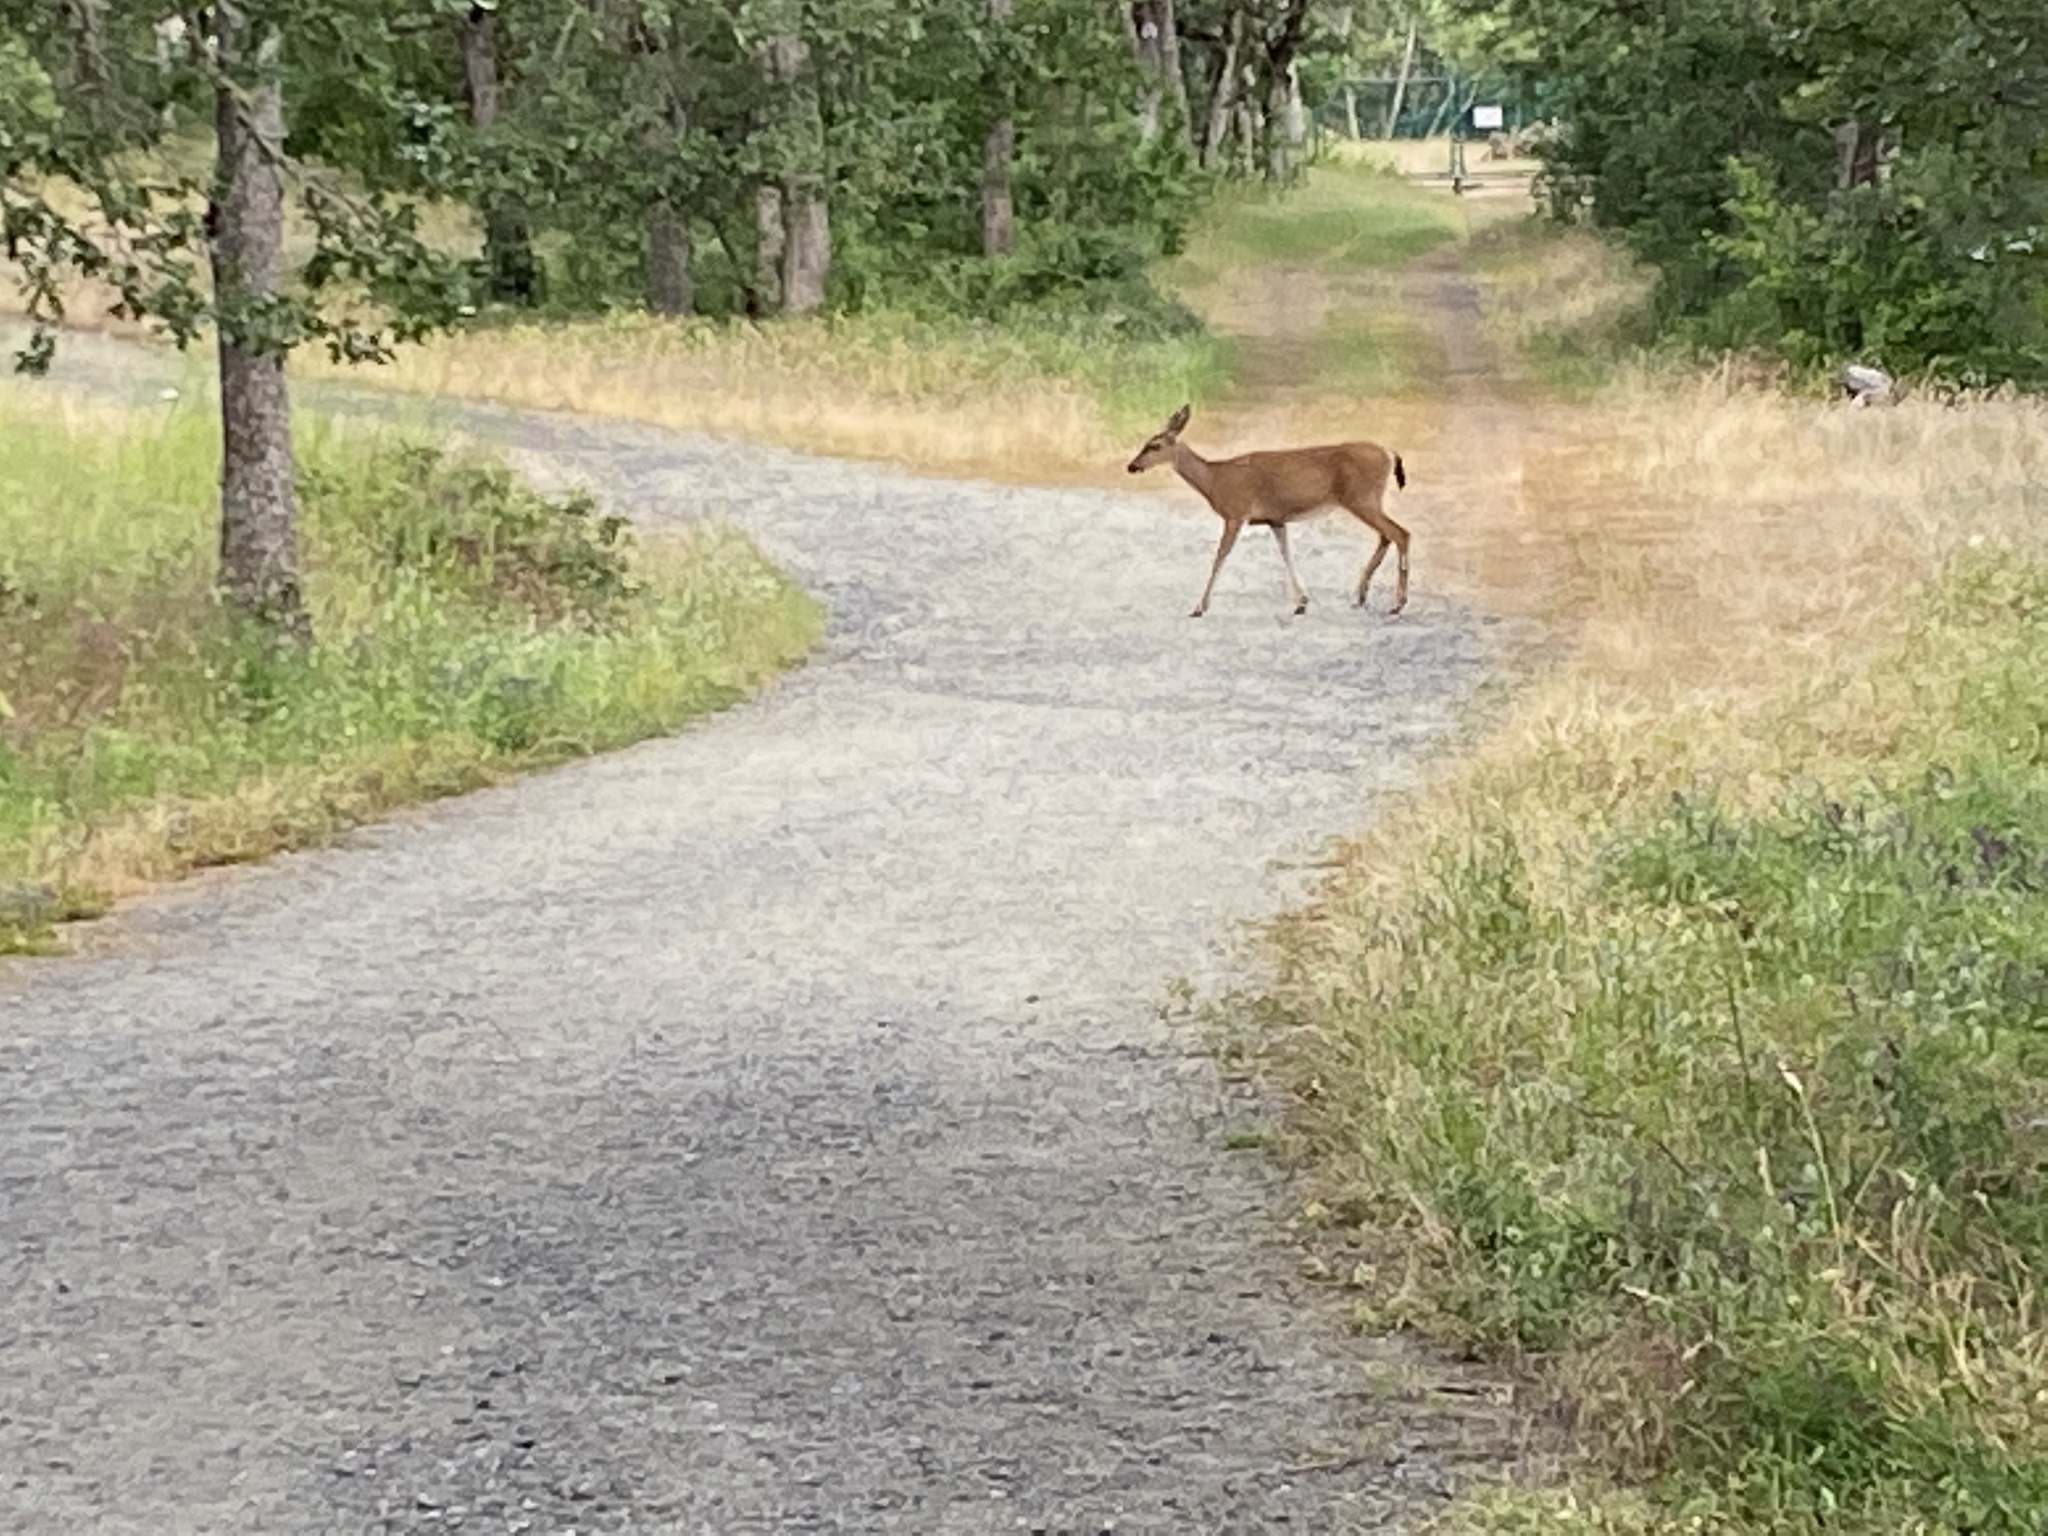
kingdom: Animalia
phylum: Chordata
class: Mammalia
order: Artiodactyla
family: Cervidae
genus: Odocoileus
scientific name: Odocoileus hemionus
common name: Mule deer
